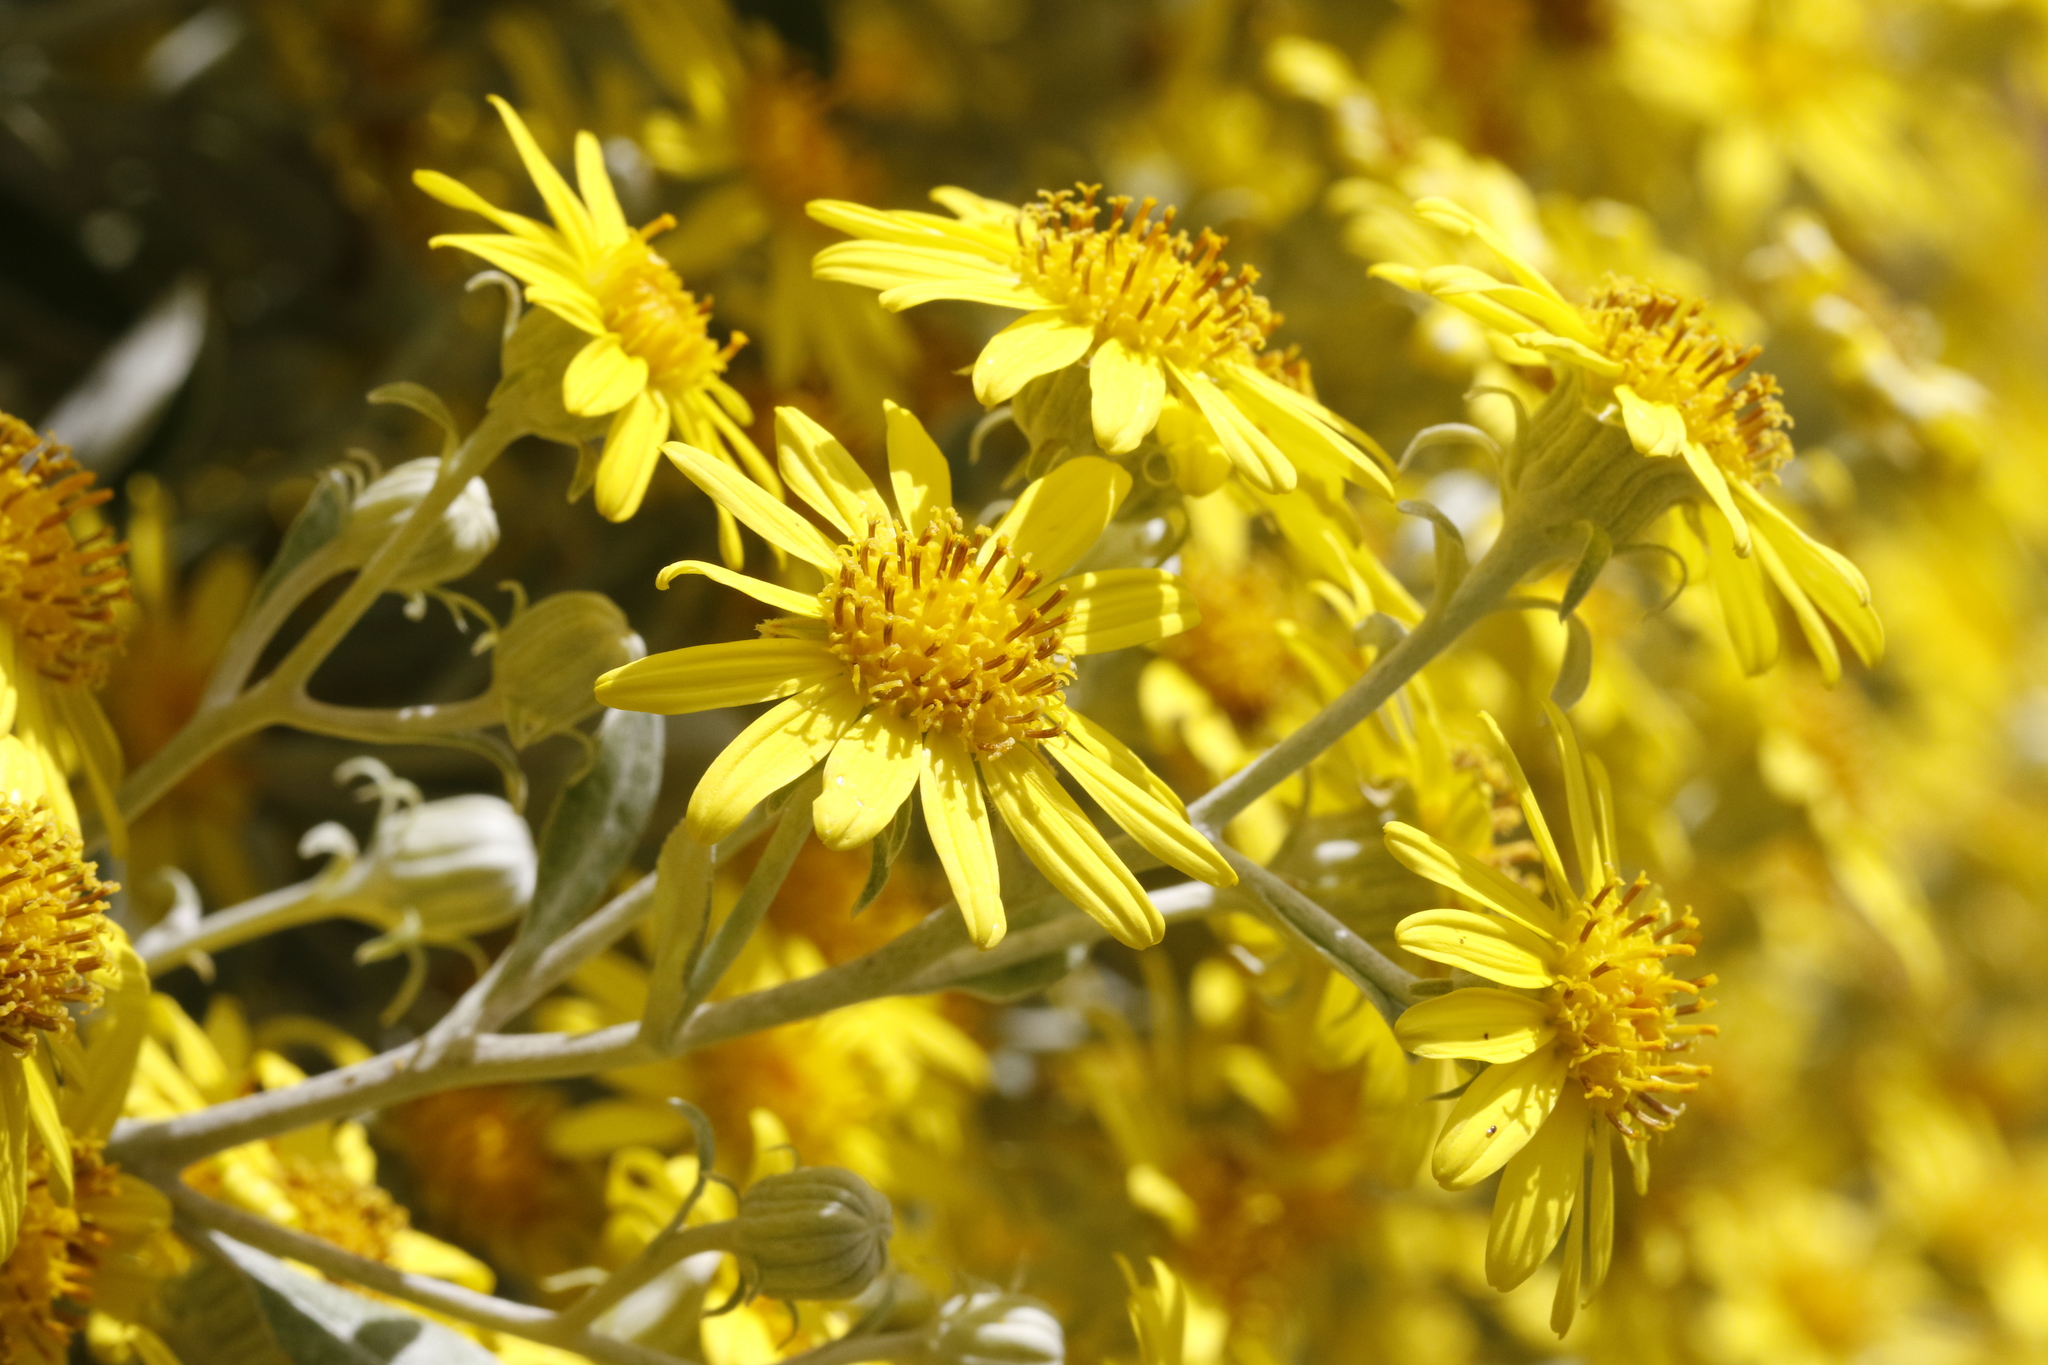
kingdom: Plantae
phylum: Tracheophyta
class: Magnoliopsida
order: Asterales
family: Asteraceae
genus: Brachyglottis
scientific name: Brachyglottis jubar
